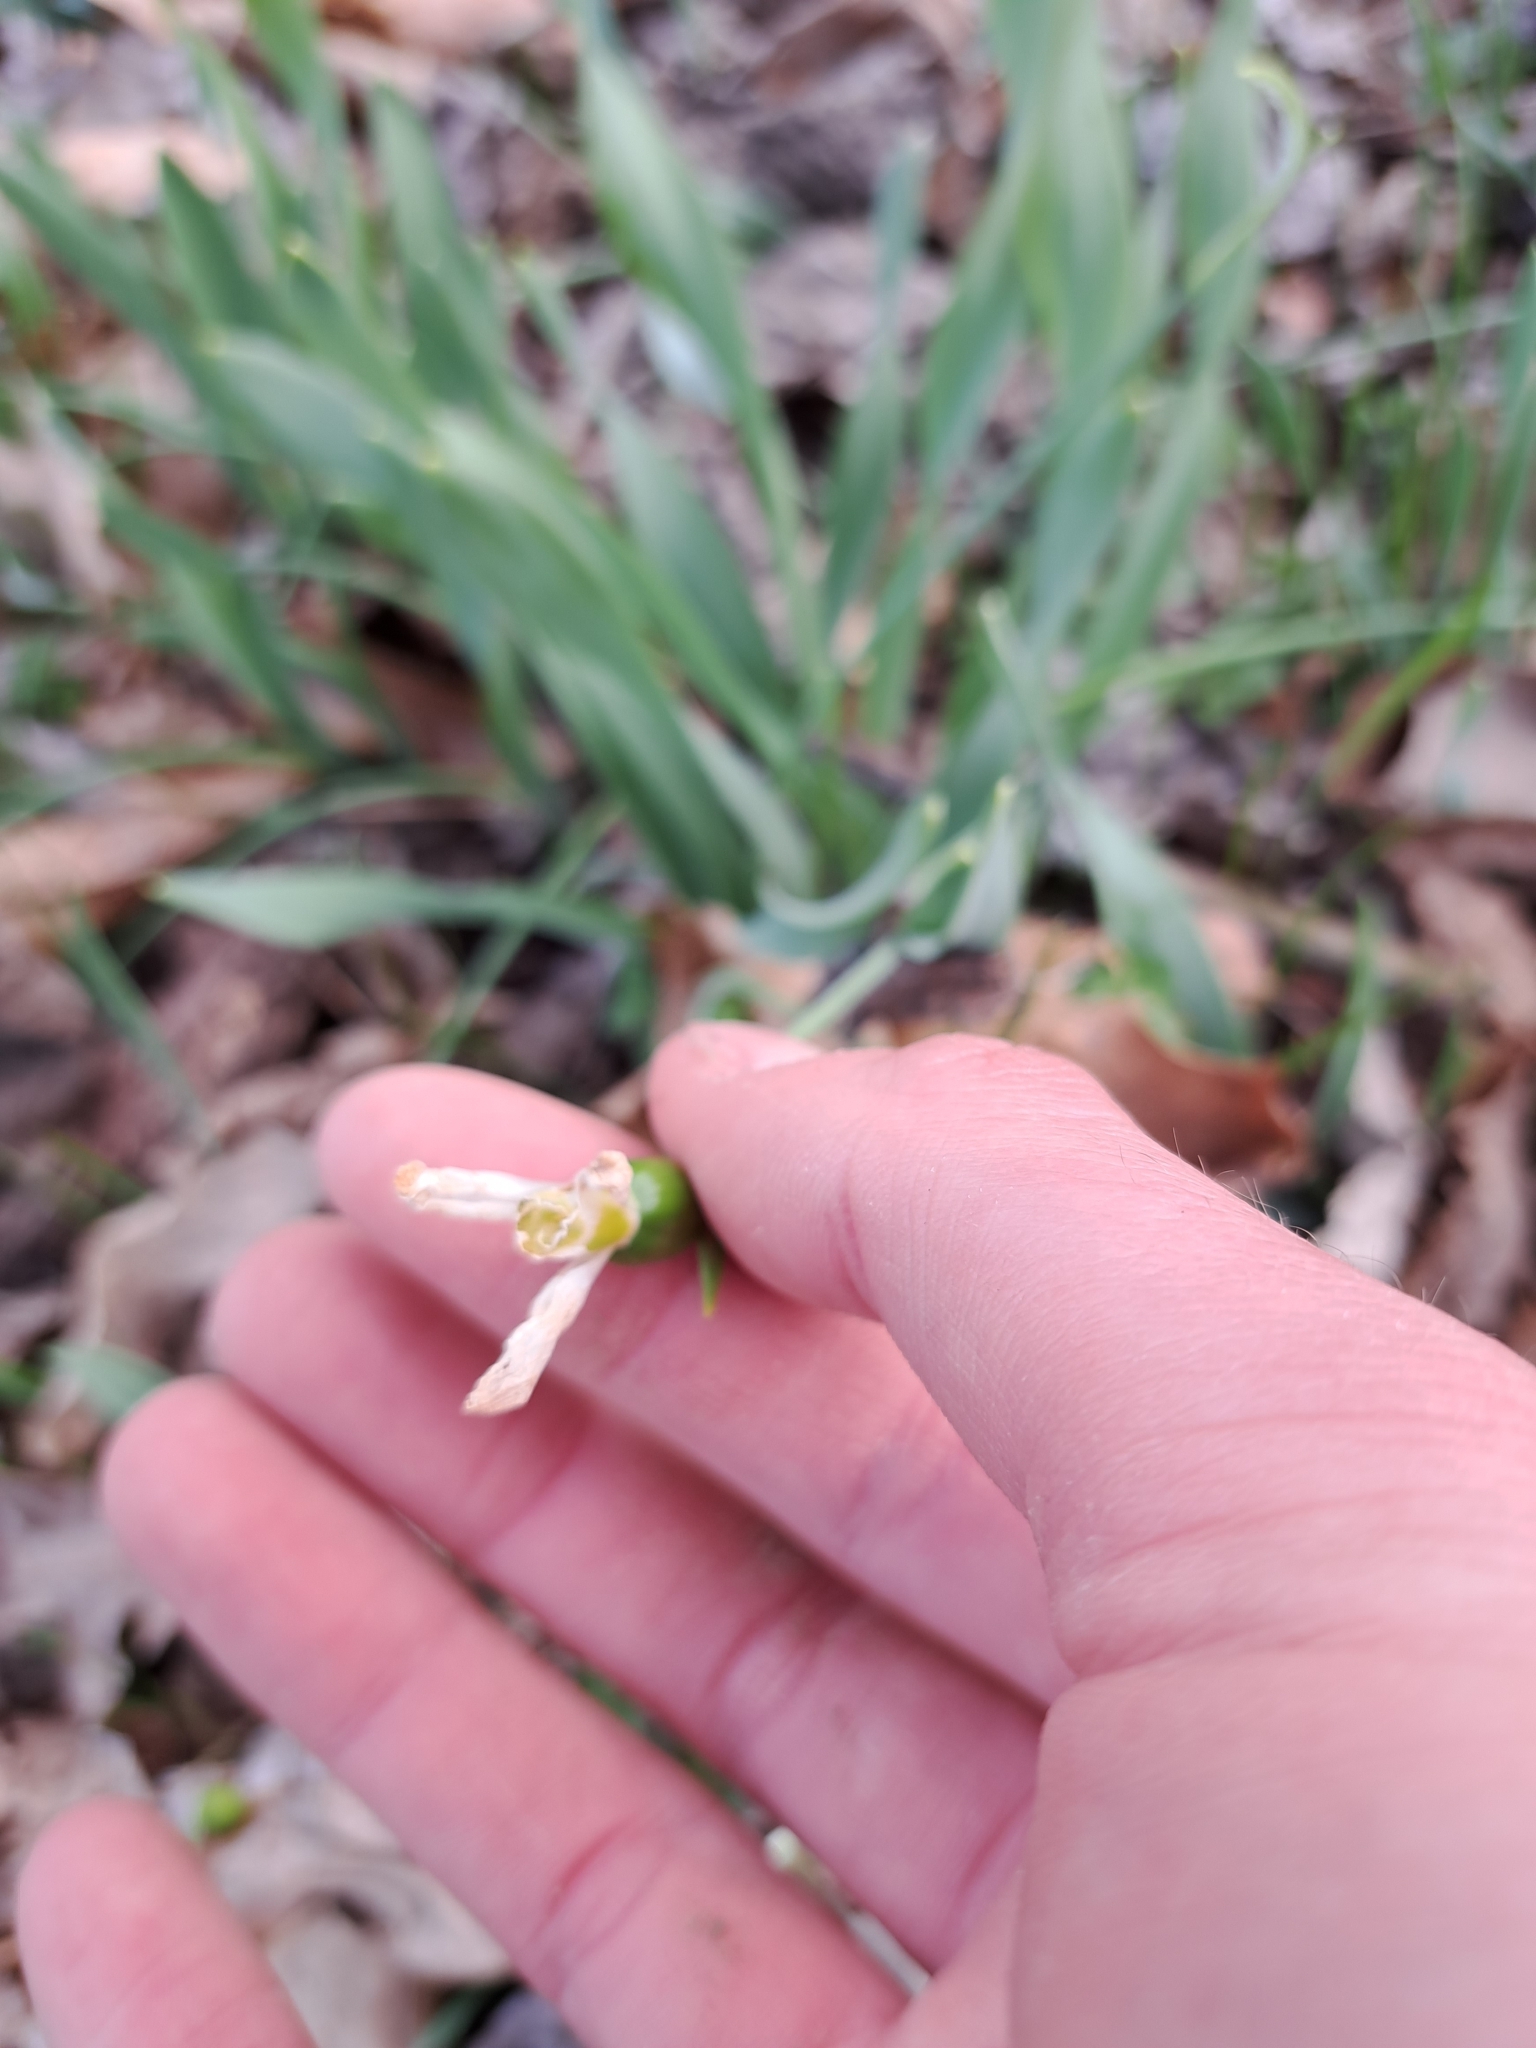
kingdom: Plantae
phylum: Tracheophyta
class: Liliopsida
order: Asparagales
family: Amaryllidaceae
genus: Galanthus
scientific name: Galanthus elwesii
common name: Greater snowdrop
